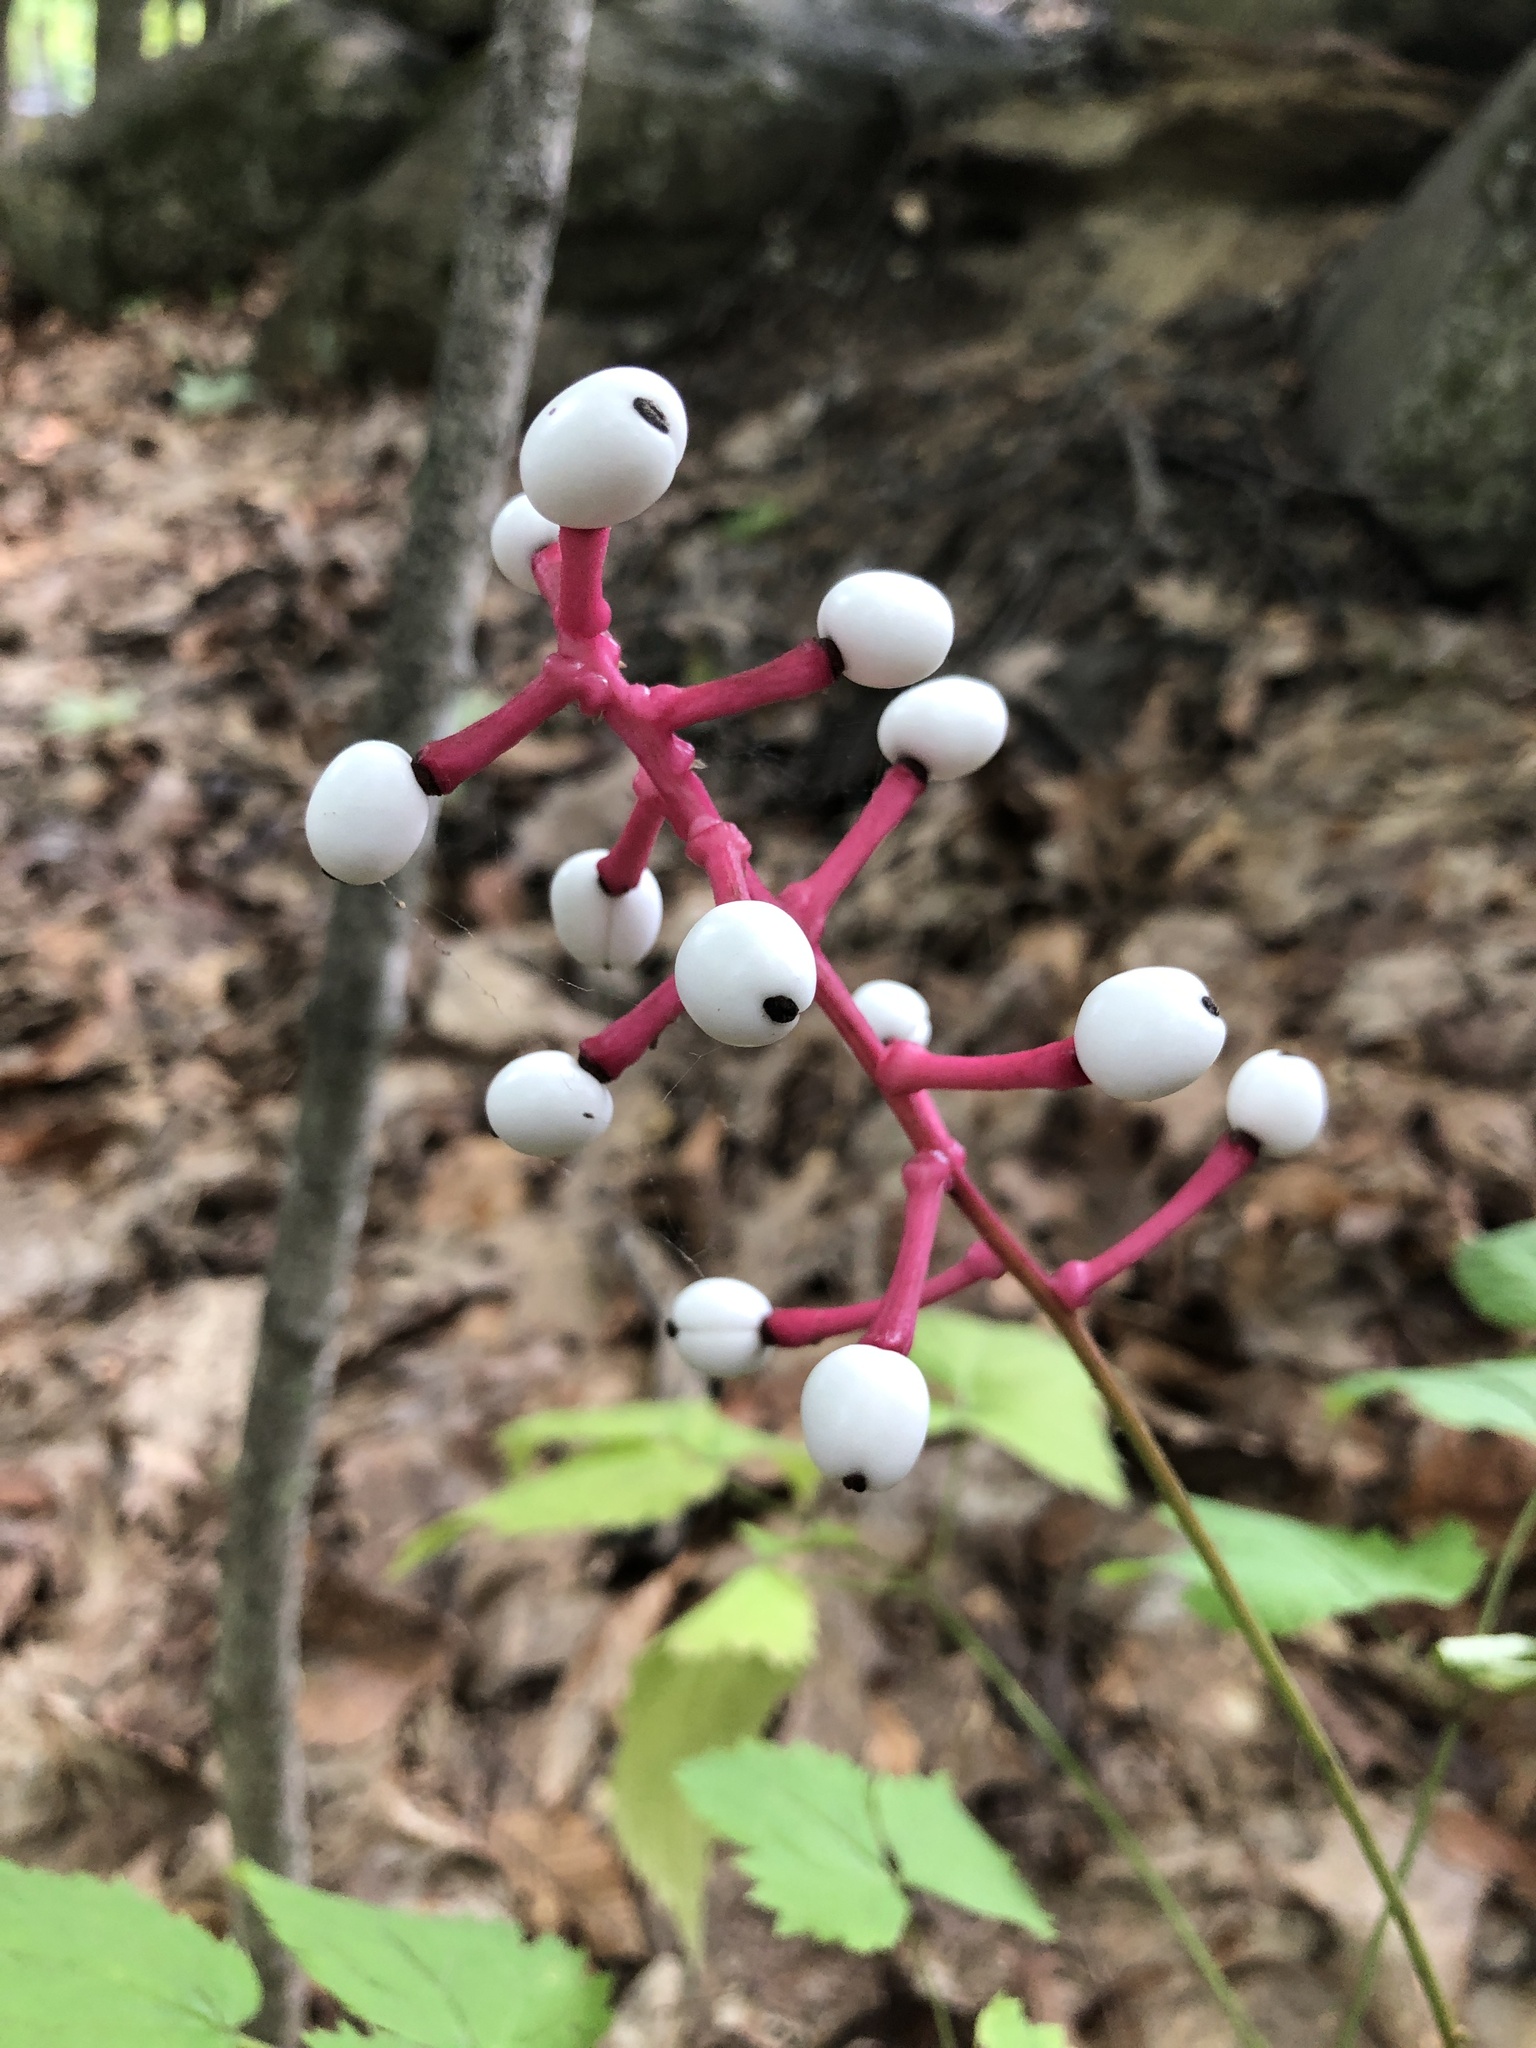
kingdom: Plantae
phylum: Tracheophyta
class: Magnoliopsida
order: Ranunculales
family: Ranunculaceae
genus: Actaea
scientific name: Actaea pachypoda
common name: Doll's-eyes
